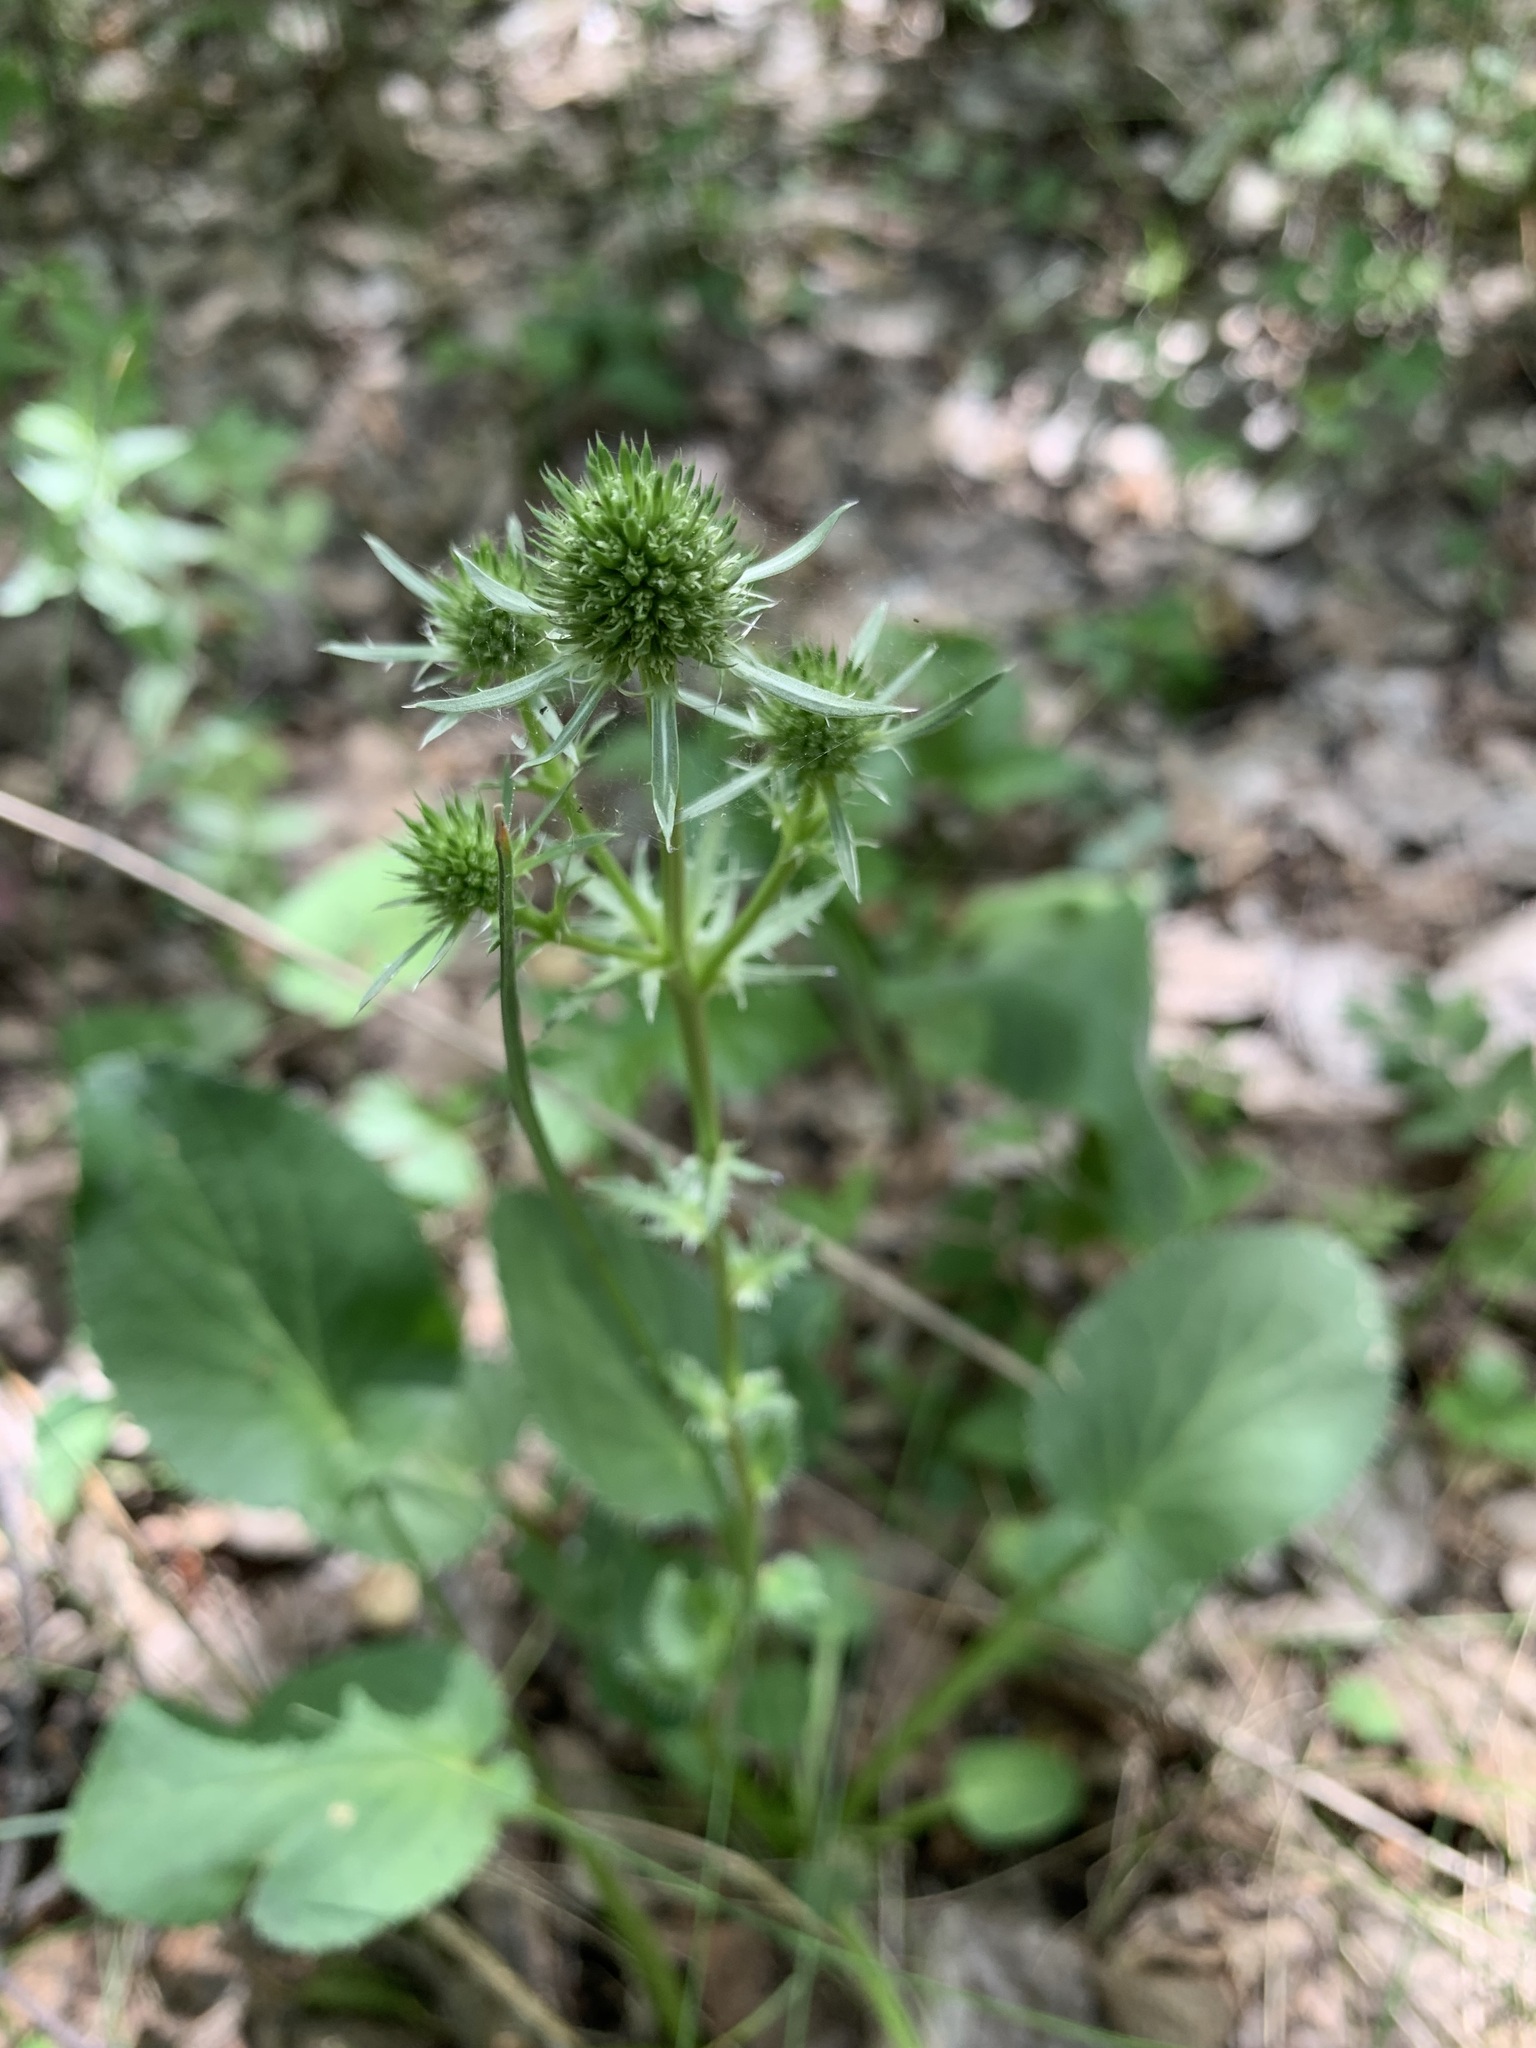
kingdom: Plantae
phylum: Tracheophyta
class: Magnoliopsida
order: Apiales
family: Apiaceae
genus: Eryngium
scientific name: Eryngium planum
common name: Blue eryngo
